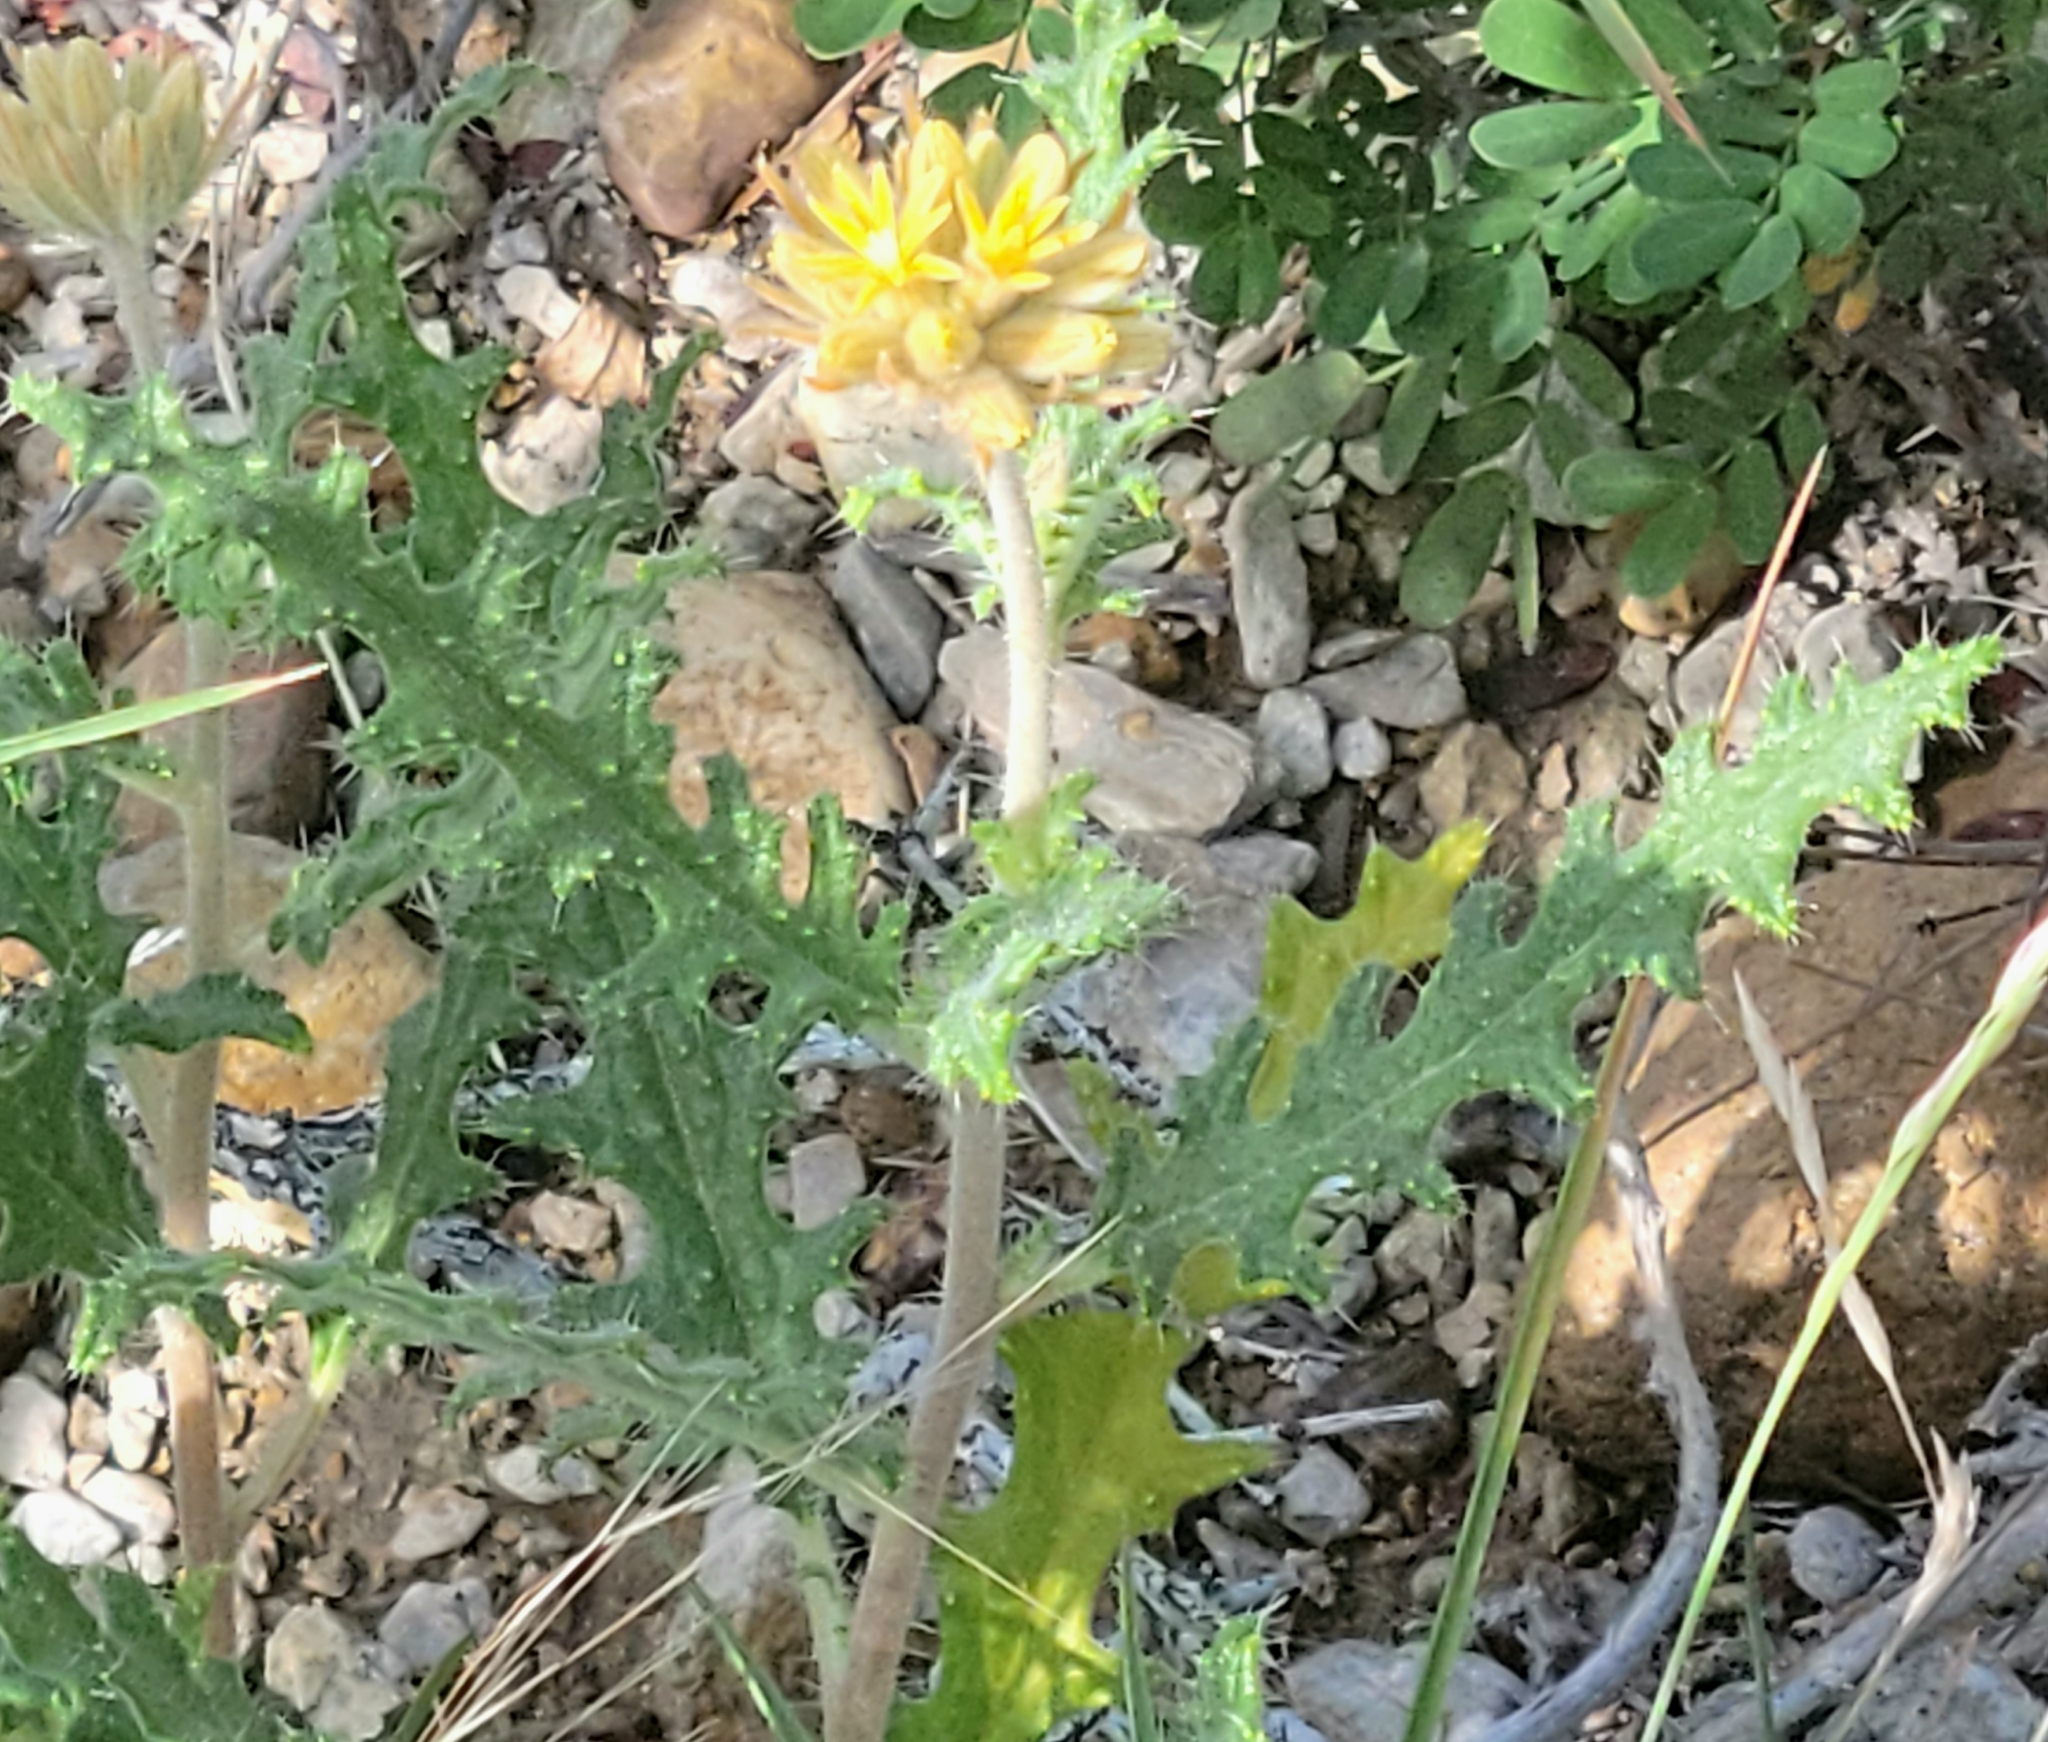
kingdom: Plantae
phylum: Tracheophyta
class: Magnoliopsida
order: Cornales
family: Loasaceae
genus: Cevallia
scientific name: Cevallia sinuata
